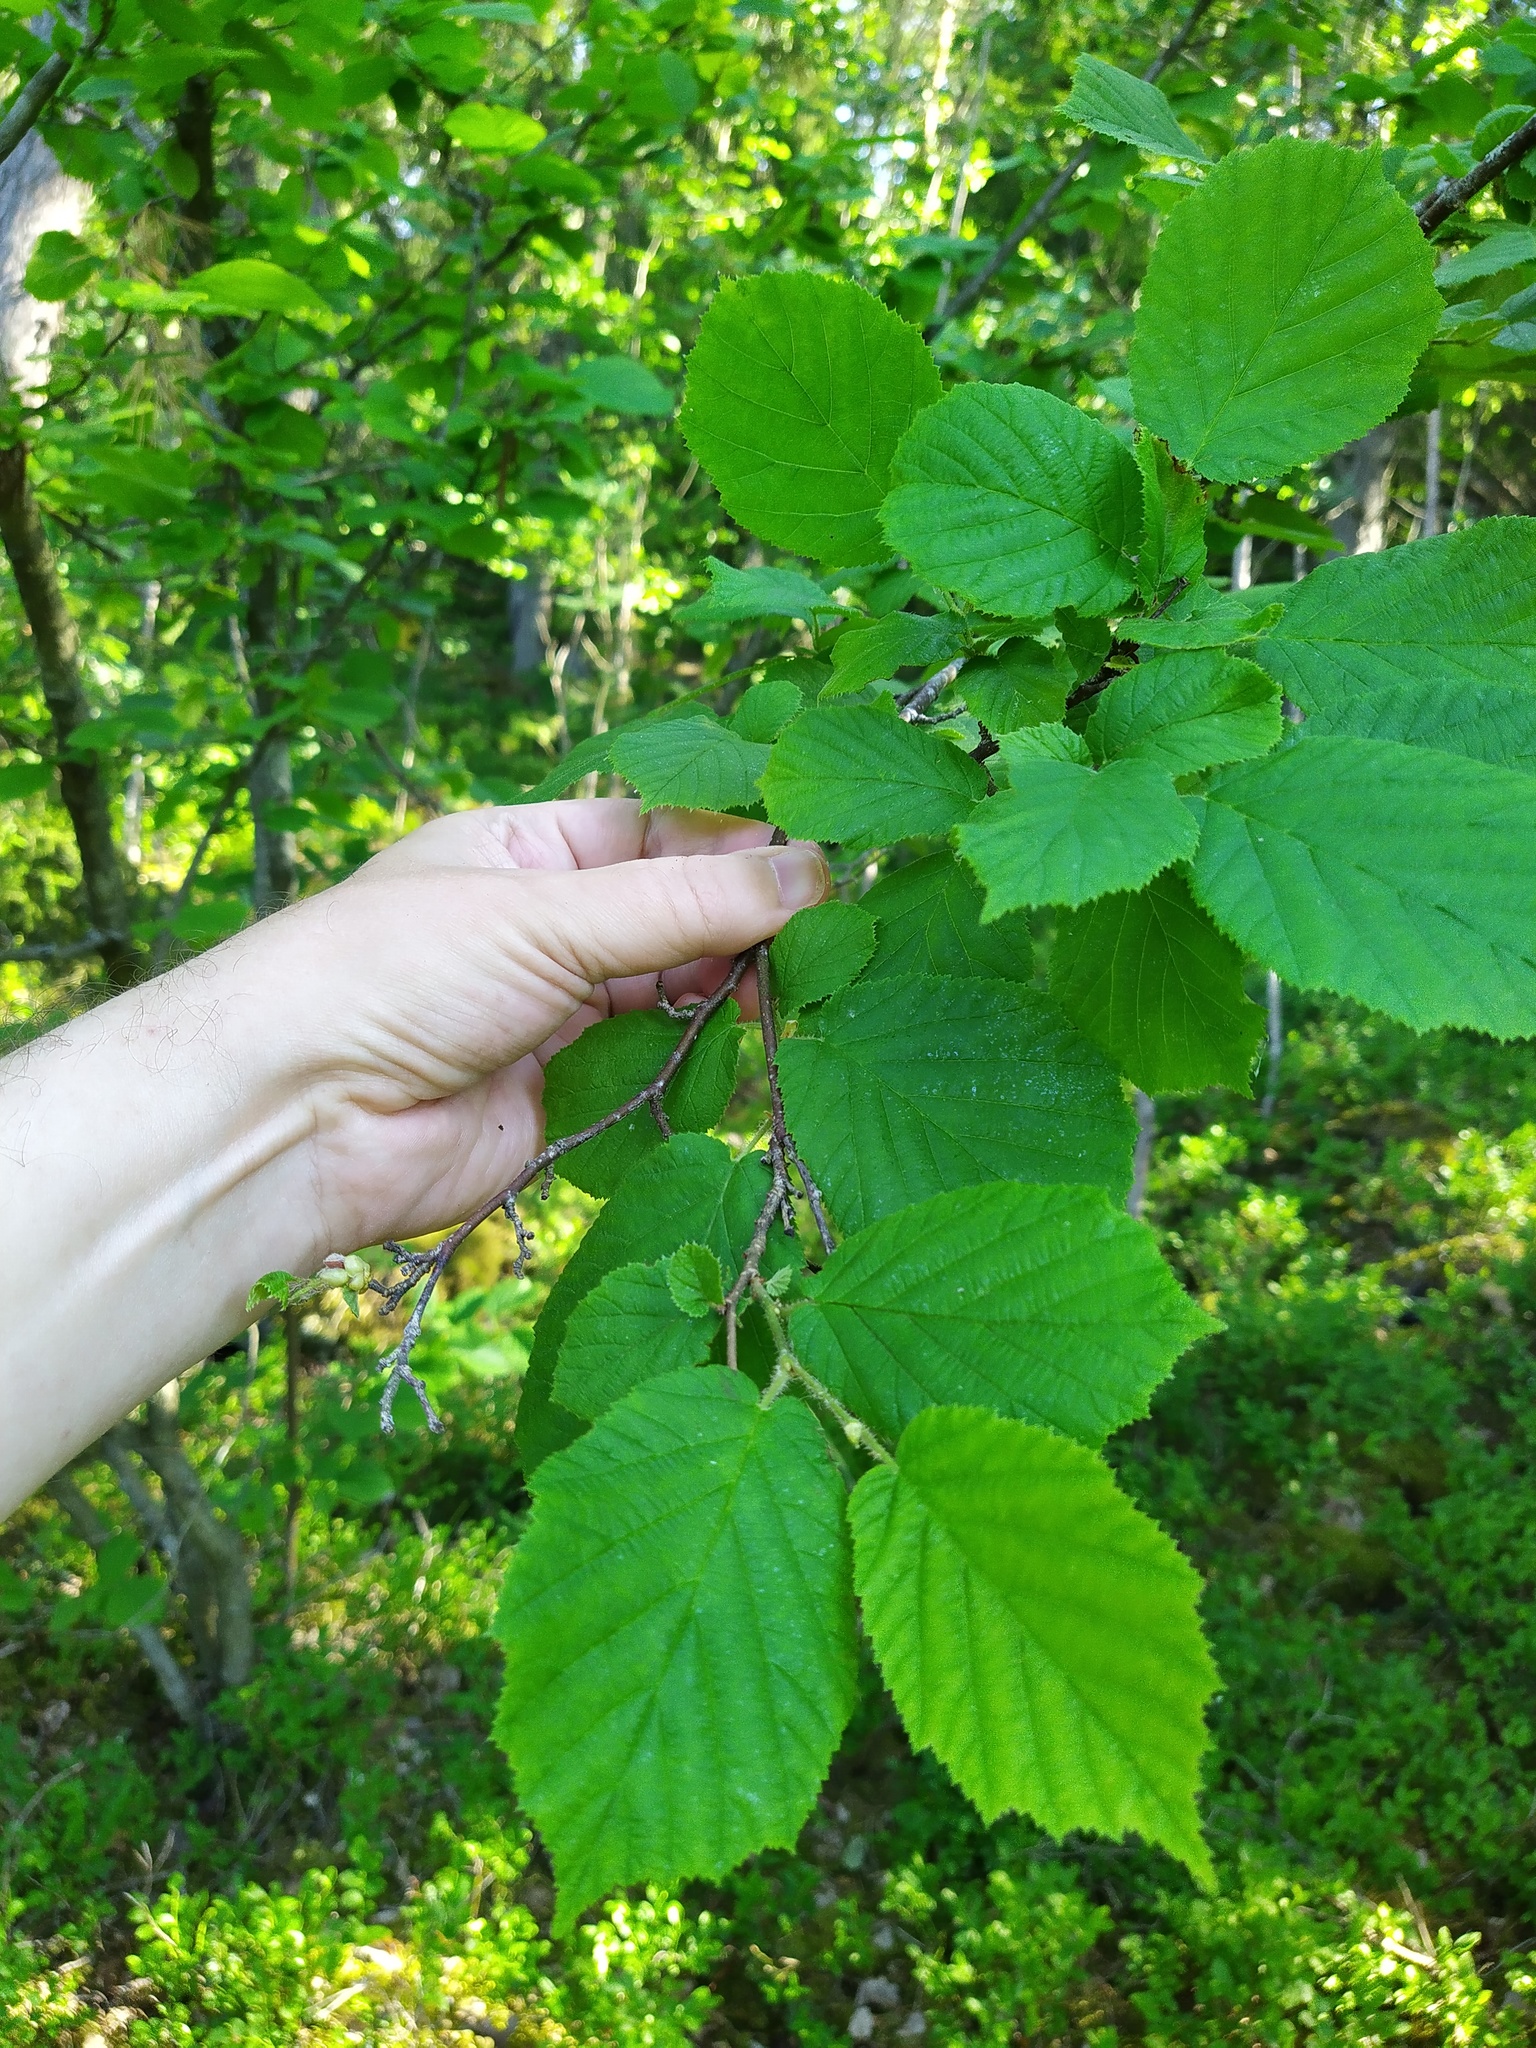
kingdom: Plantae
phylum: Tracheophyta
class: Magnoliopsida
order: Fagales
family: Betulaceae
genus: Corylus
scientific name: Corylus avellana
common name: European hazel
